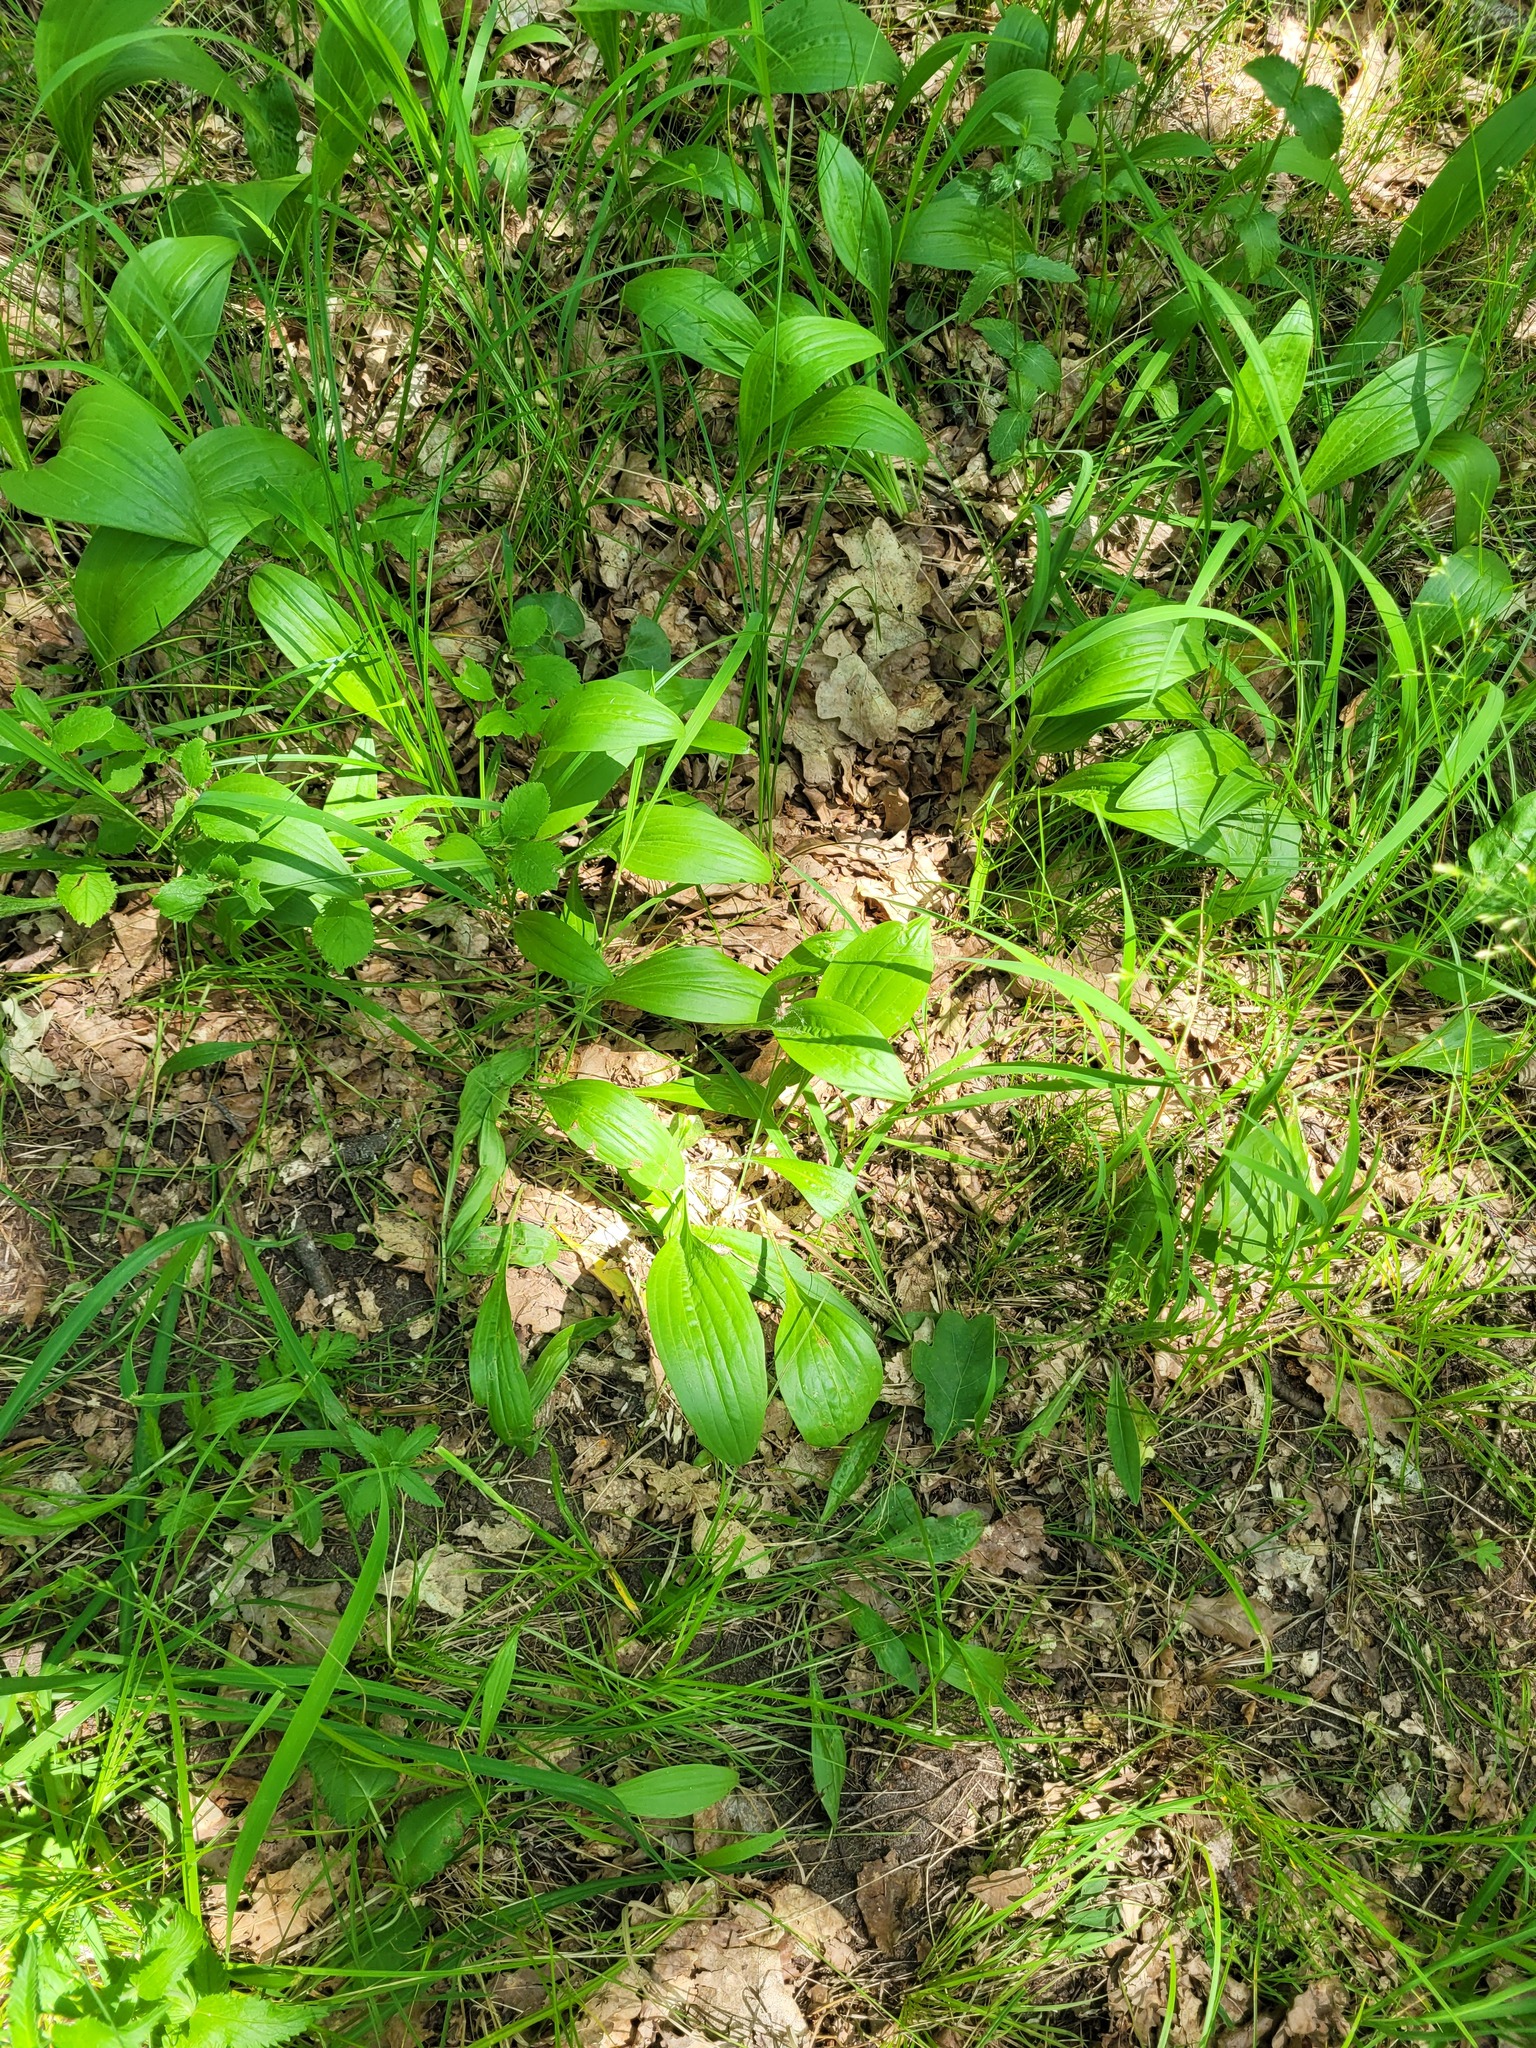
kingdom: Plantae
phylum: Tracheophyta
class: Magnoliopsida
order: Asterales
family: Asteraceae
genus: Scorzonera
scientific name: Scorzonera humilis
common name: Viper's-grass
